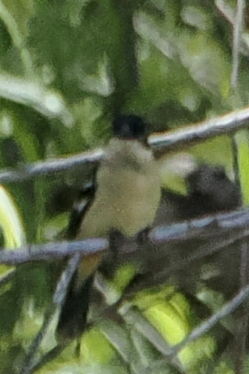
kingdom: Animalia
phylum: Chordata
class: Aves
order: Passeriformes
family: Thraupidae
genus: Sporophila
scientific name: Sporophila morelleti
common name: Morelet's seedeater
